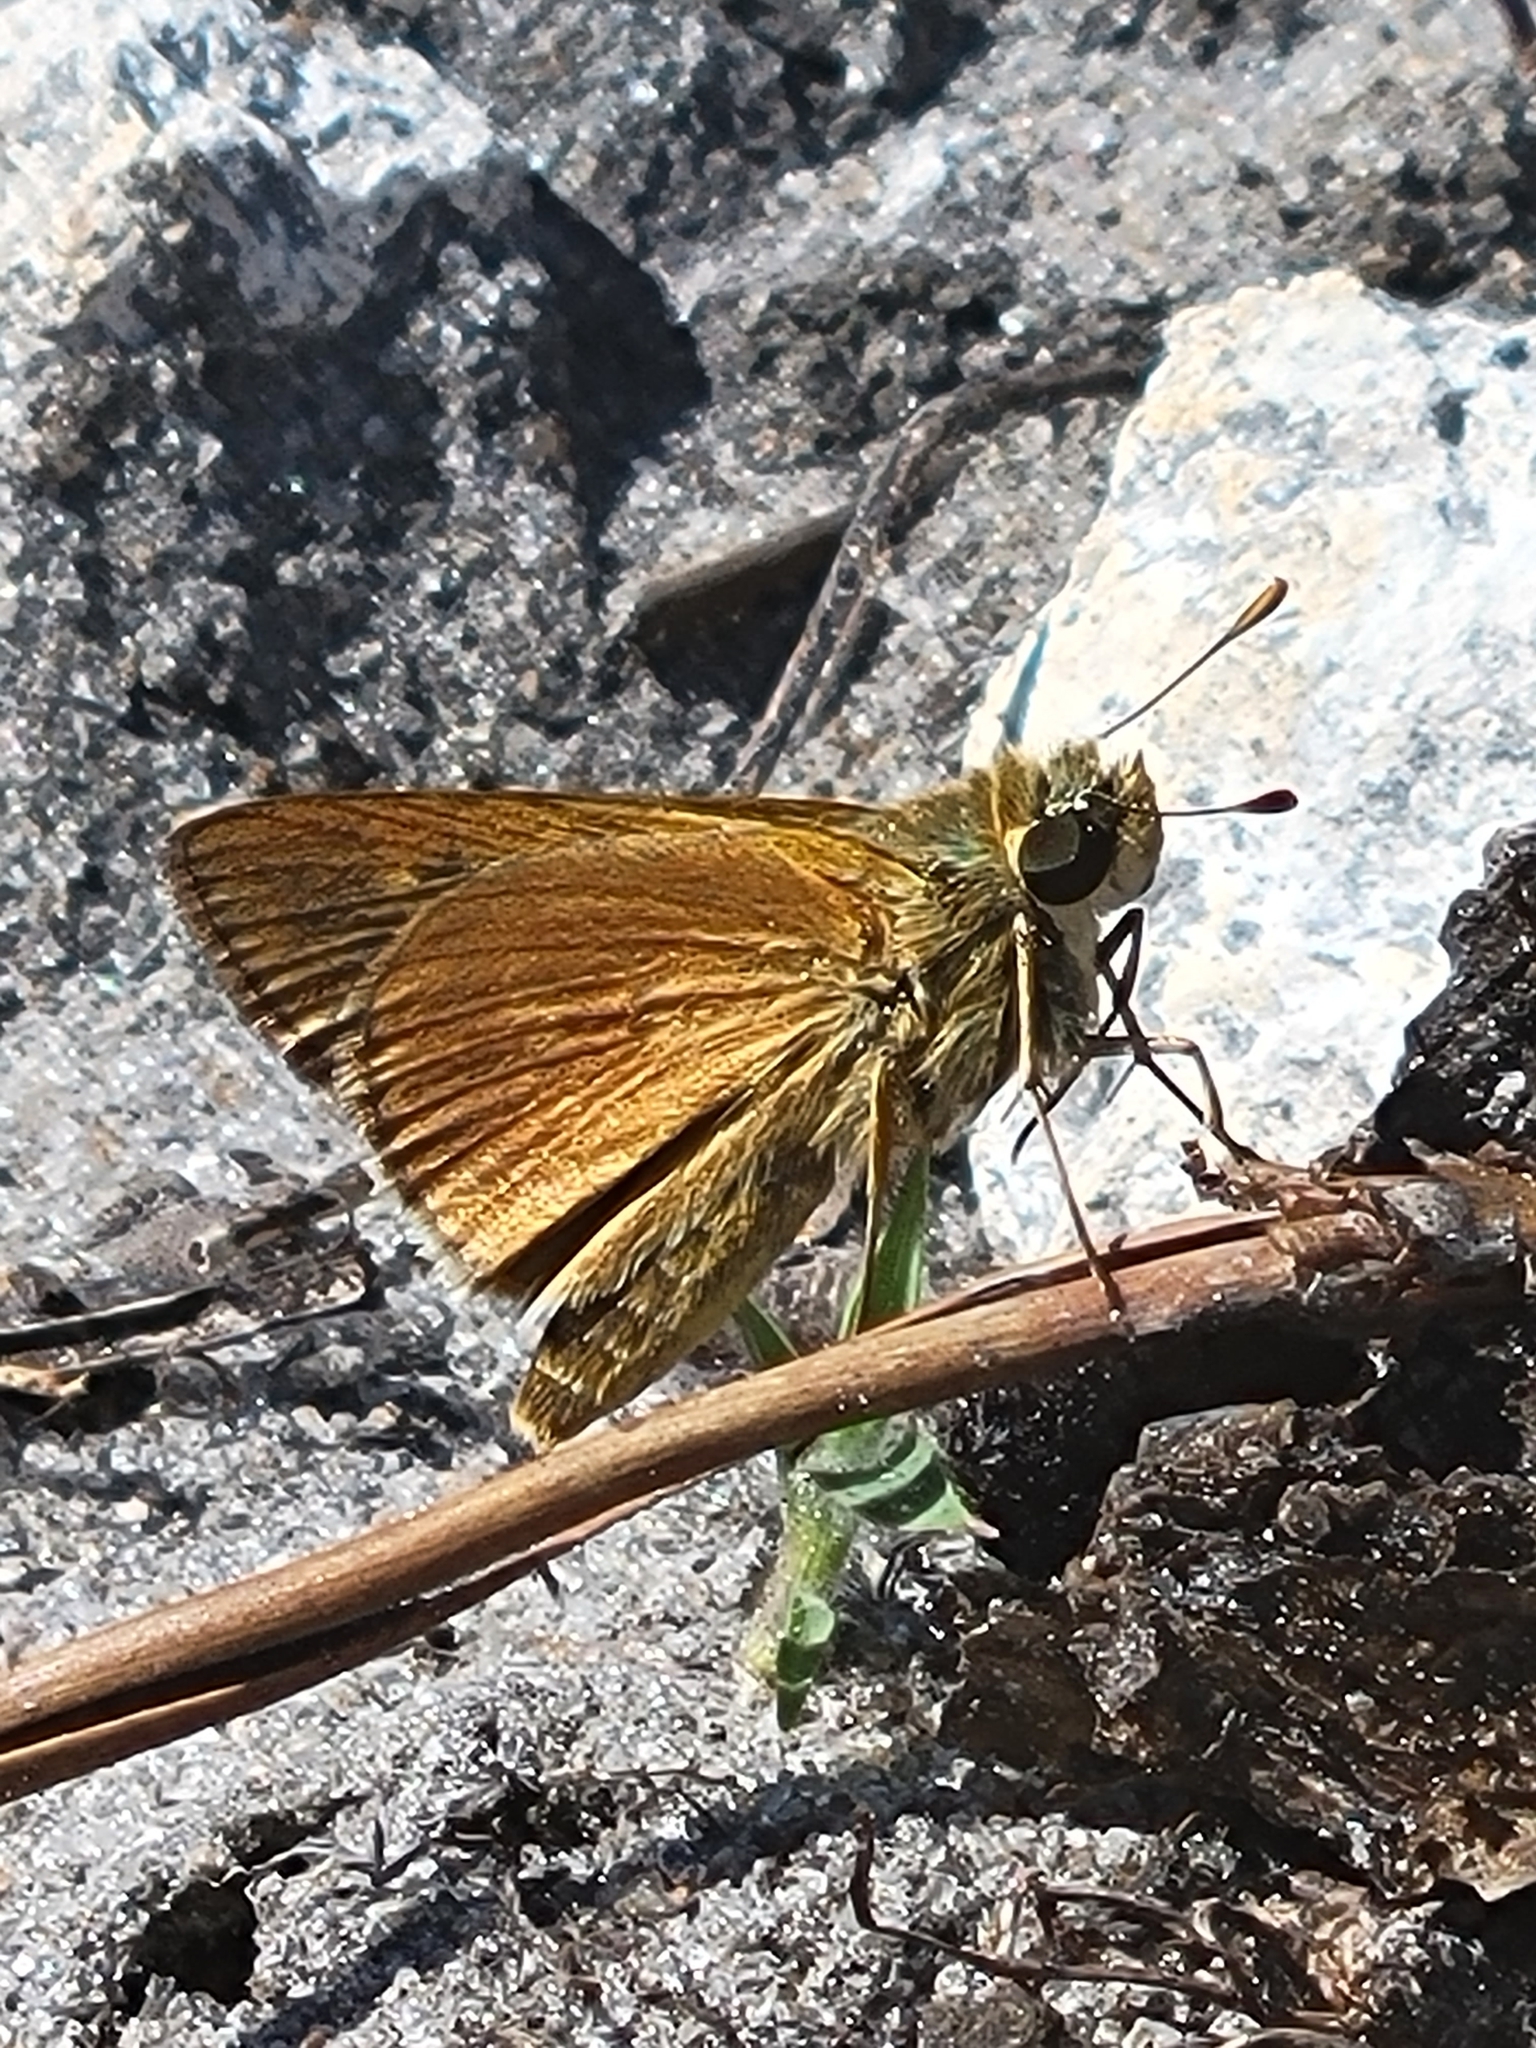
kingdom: Animalia
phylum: Arthropoda
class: Insecta
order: Lepidoptera
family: Hesperiidae
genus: Polites
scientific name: Polites otho
